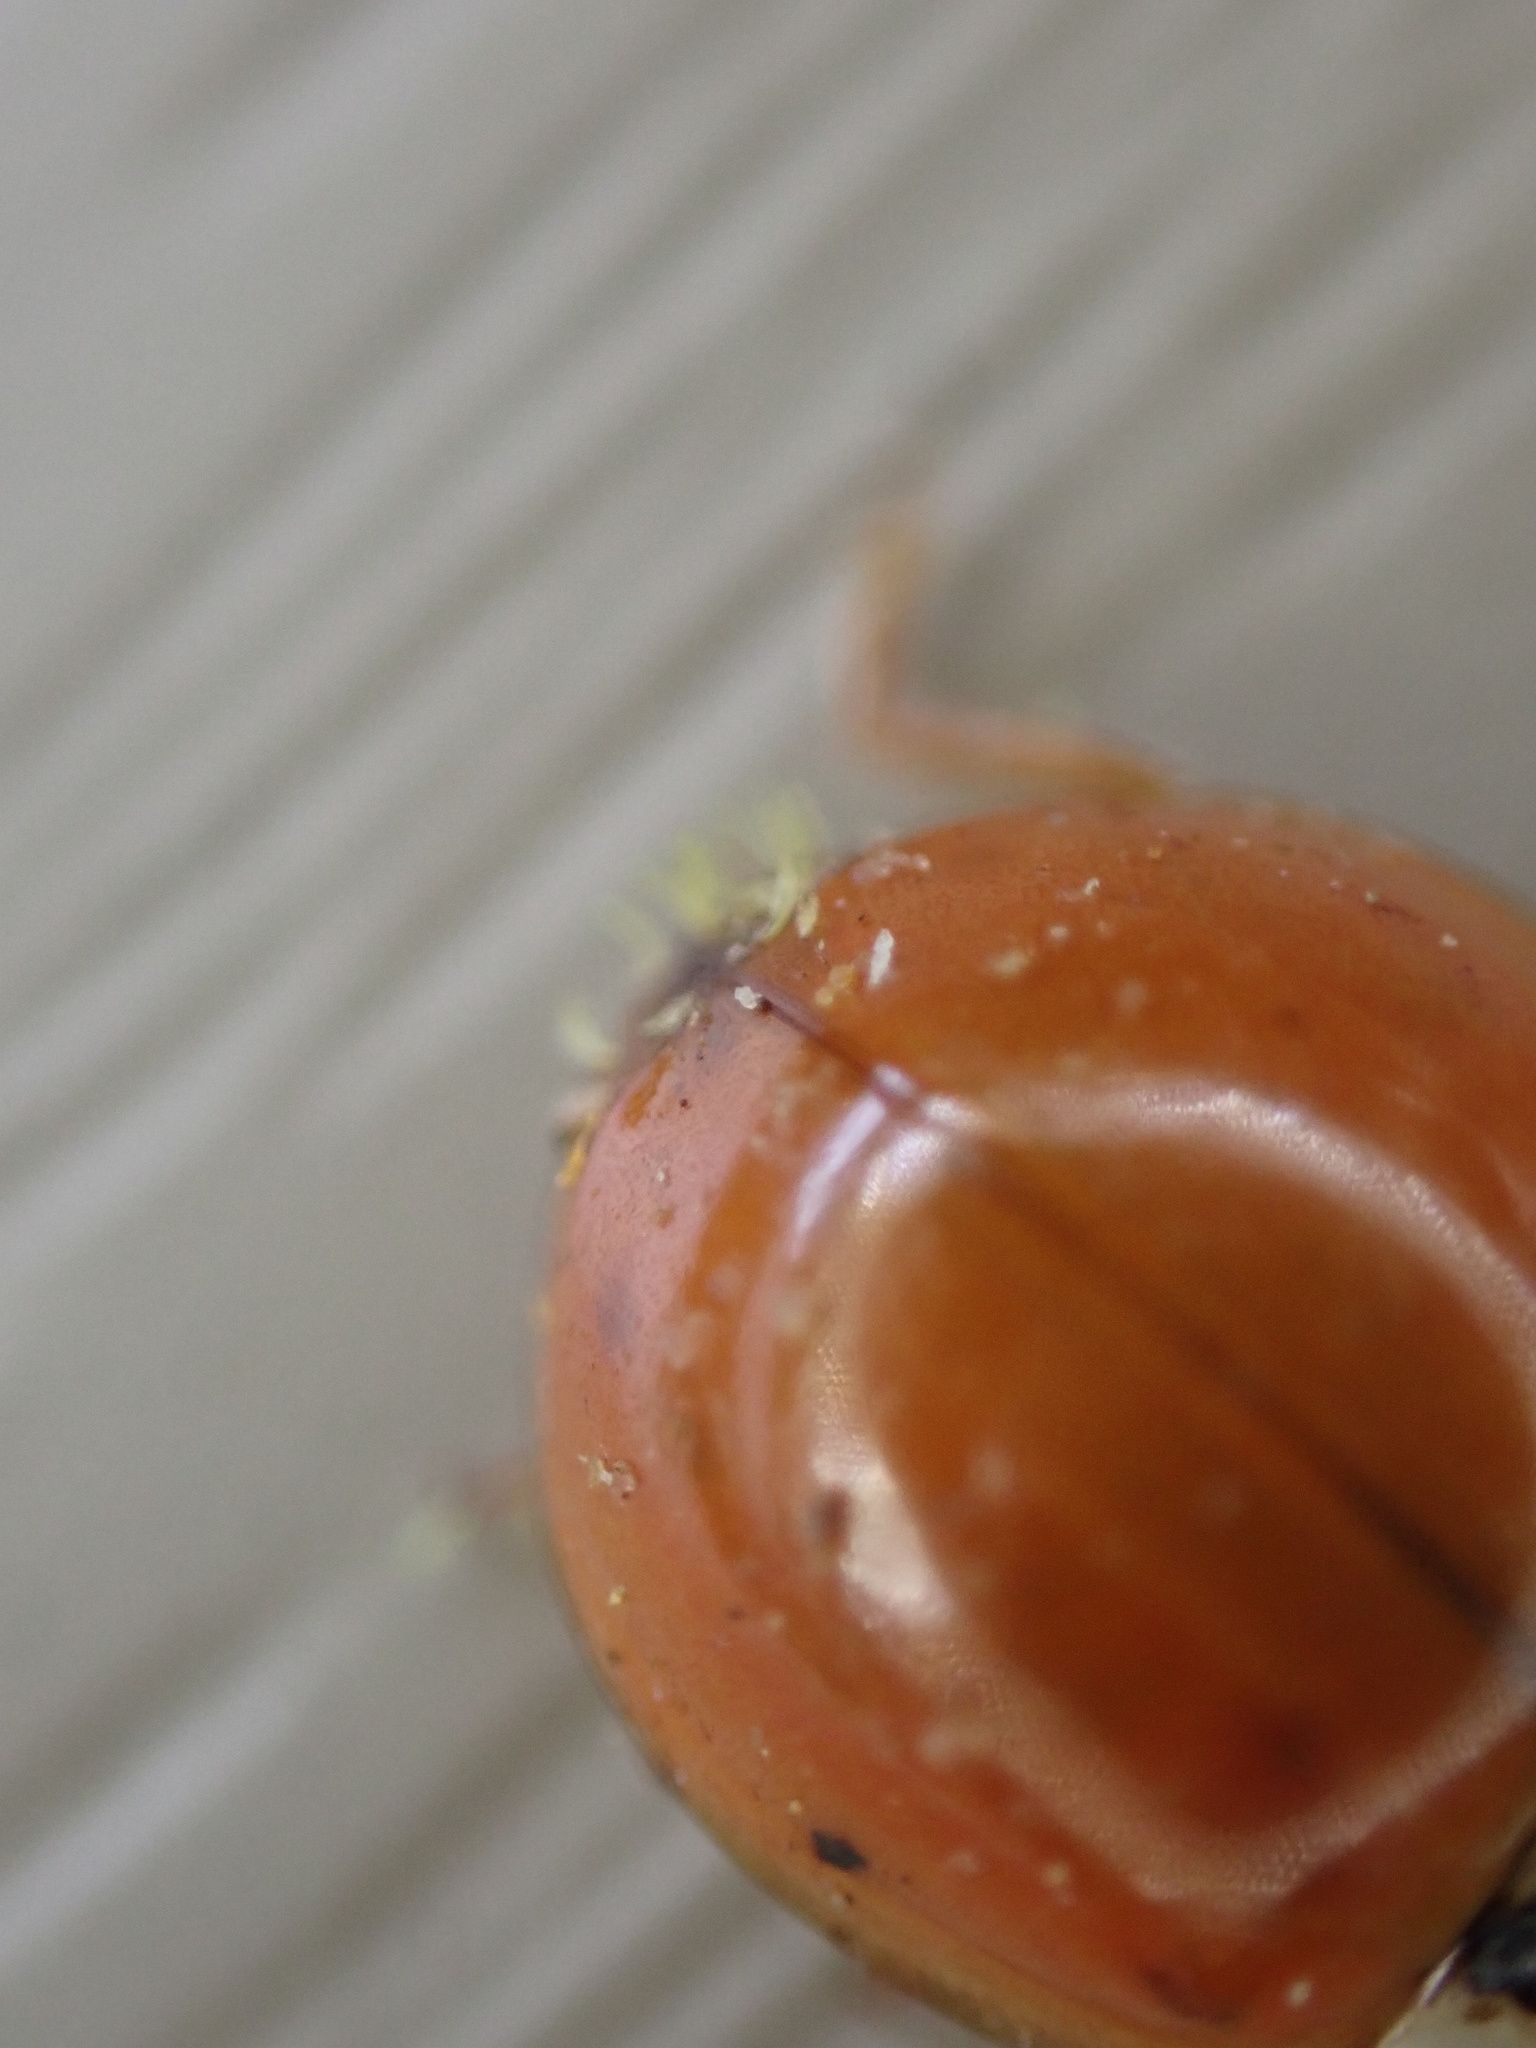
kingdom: Fungi
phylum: Ascomycota
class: Laboulbeniomycetes
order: Laboulbeniales
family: Laboulbeniaceae
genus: Hesperomyces
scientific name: Hesperomyces harmoniae
